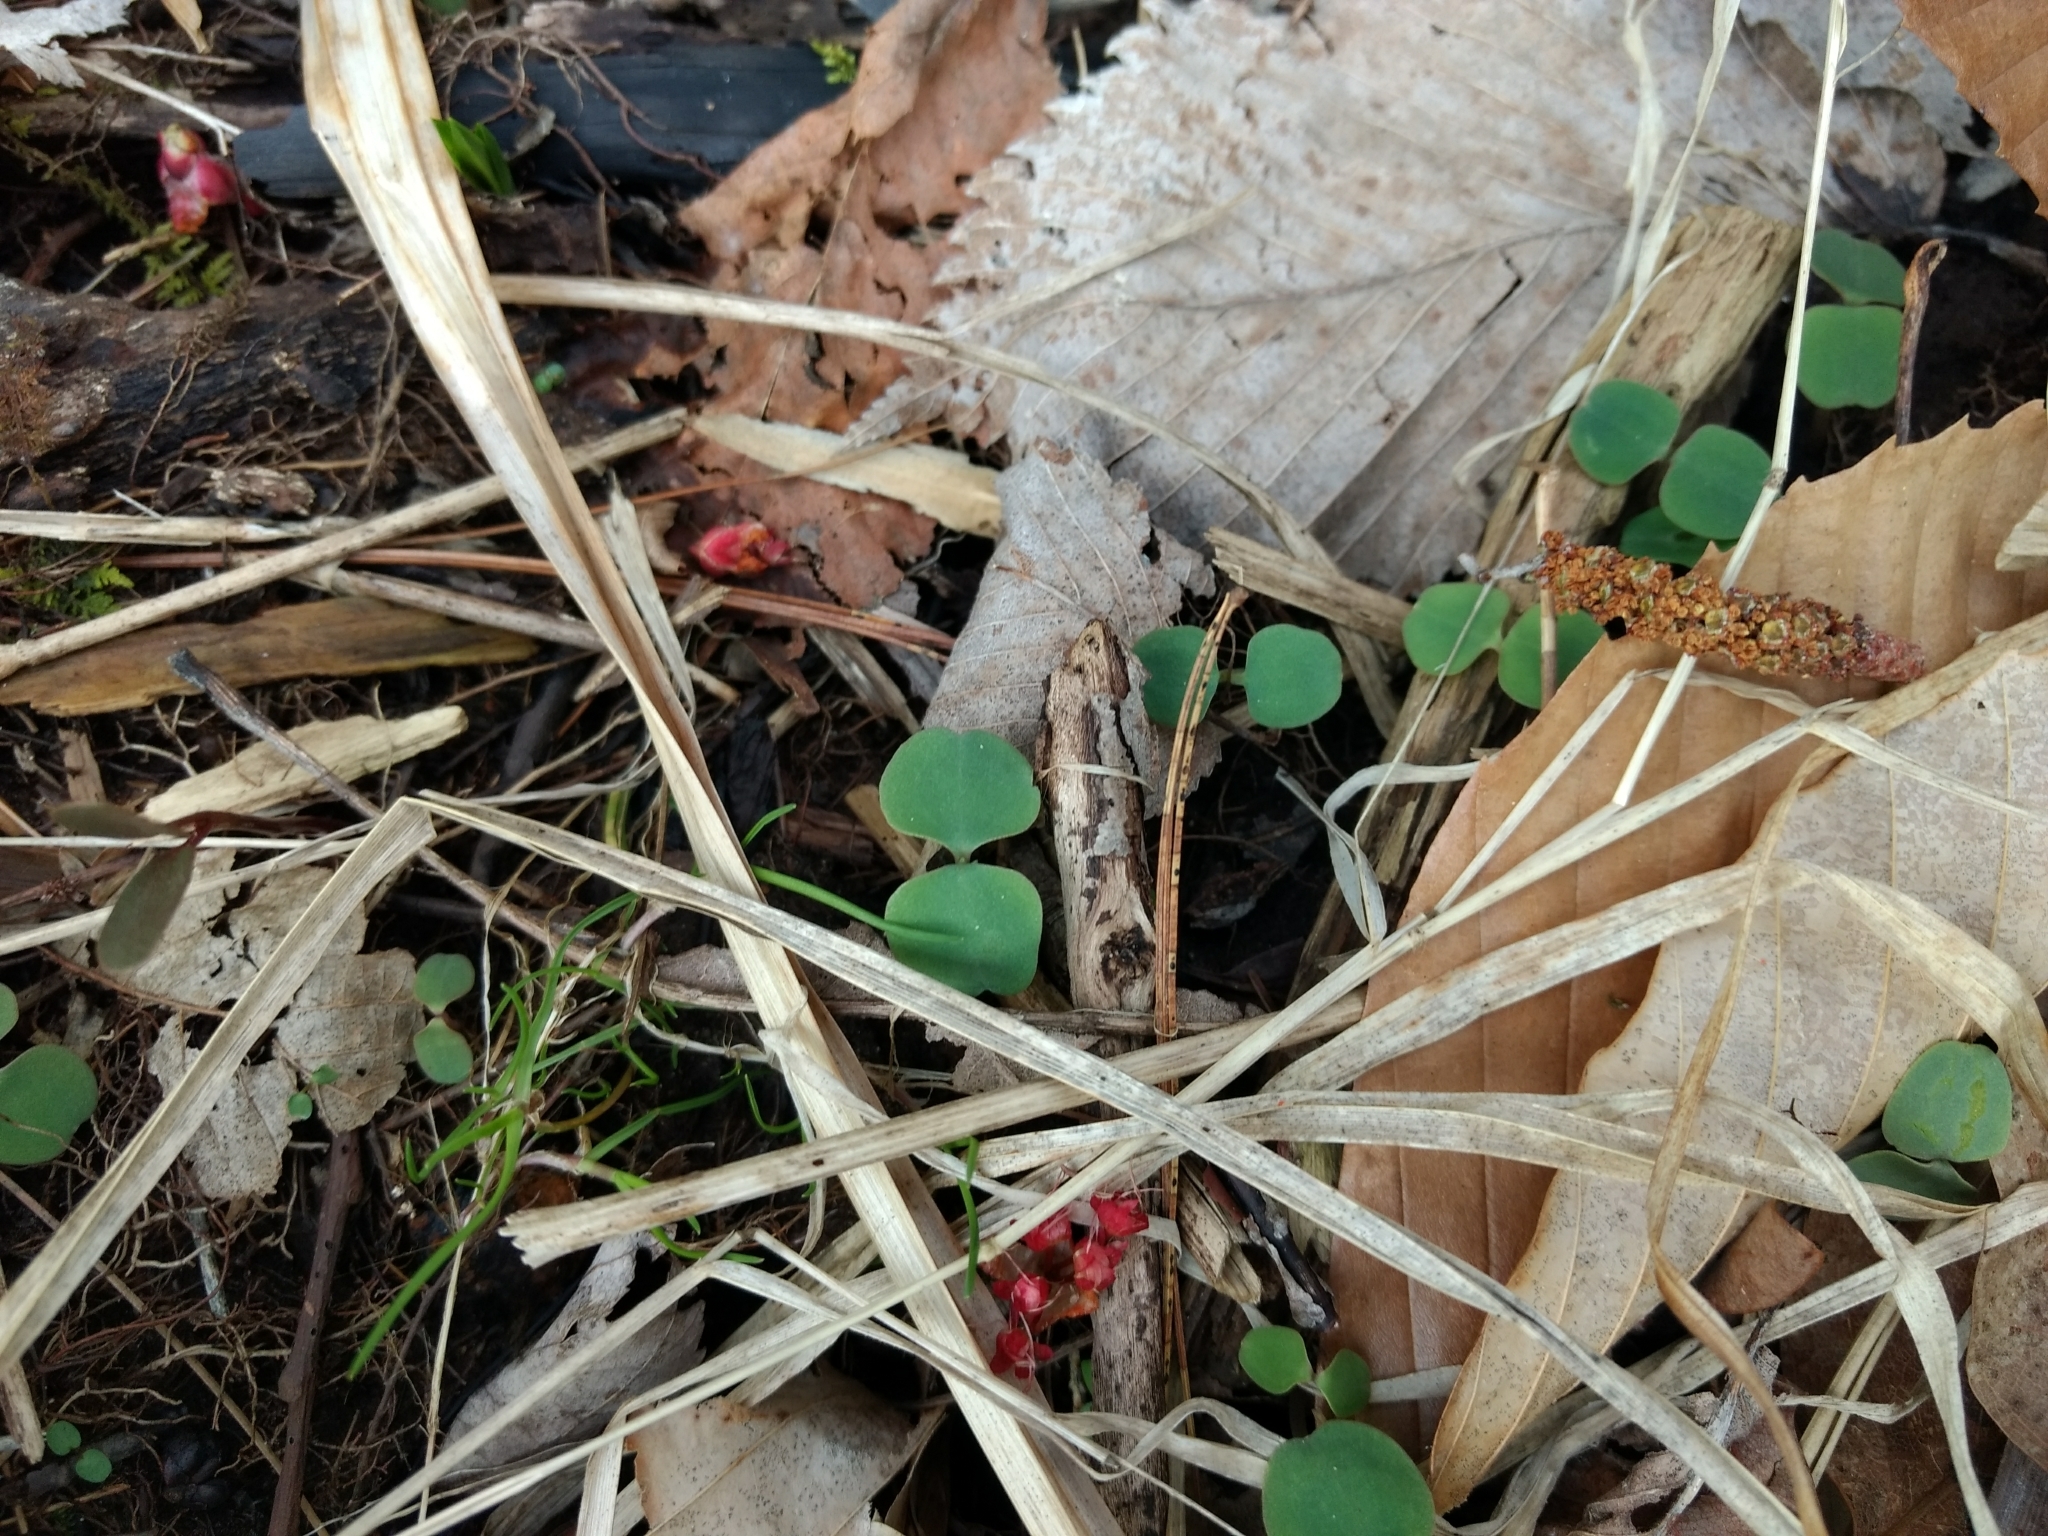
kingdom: Plantae
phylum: Tracheophyta
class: Magnoliopsida
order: Ericales
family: Balsaminaceae
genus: Impatiens
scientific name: Impatiens
